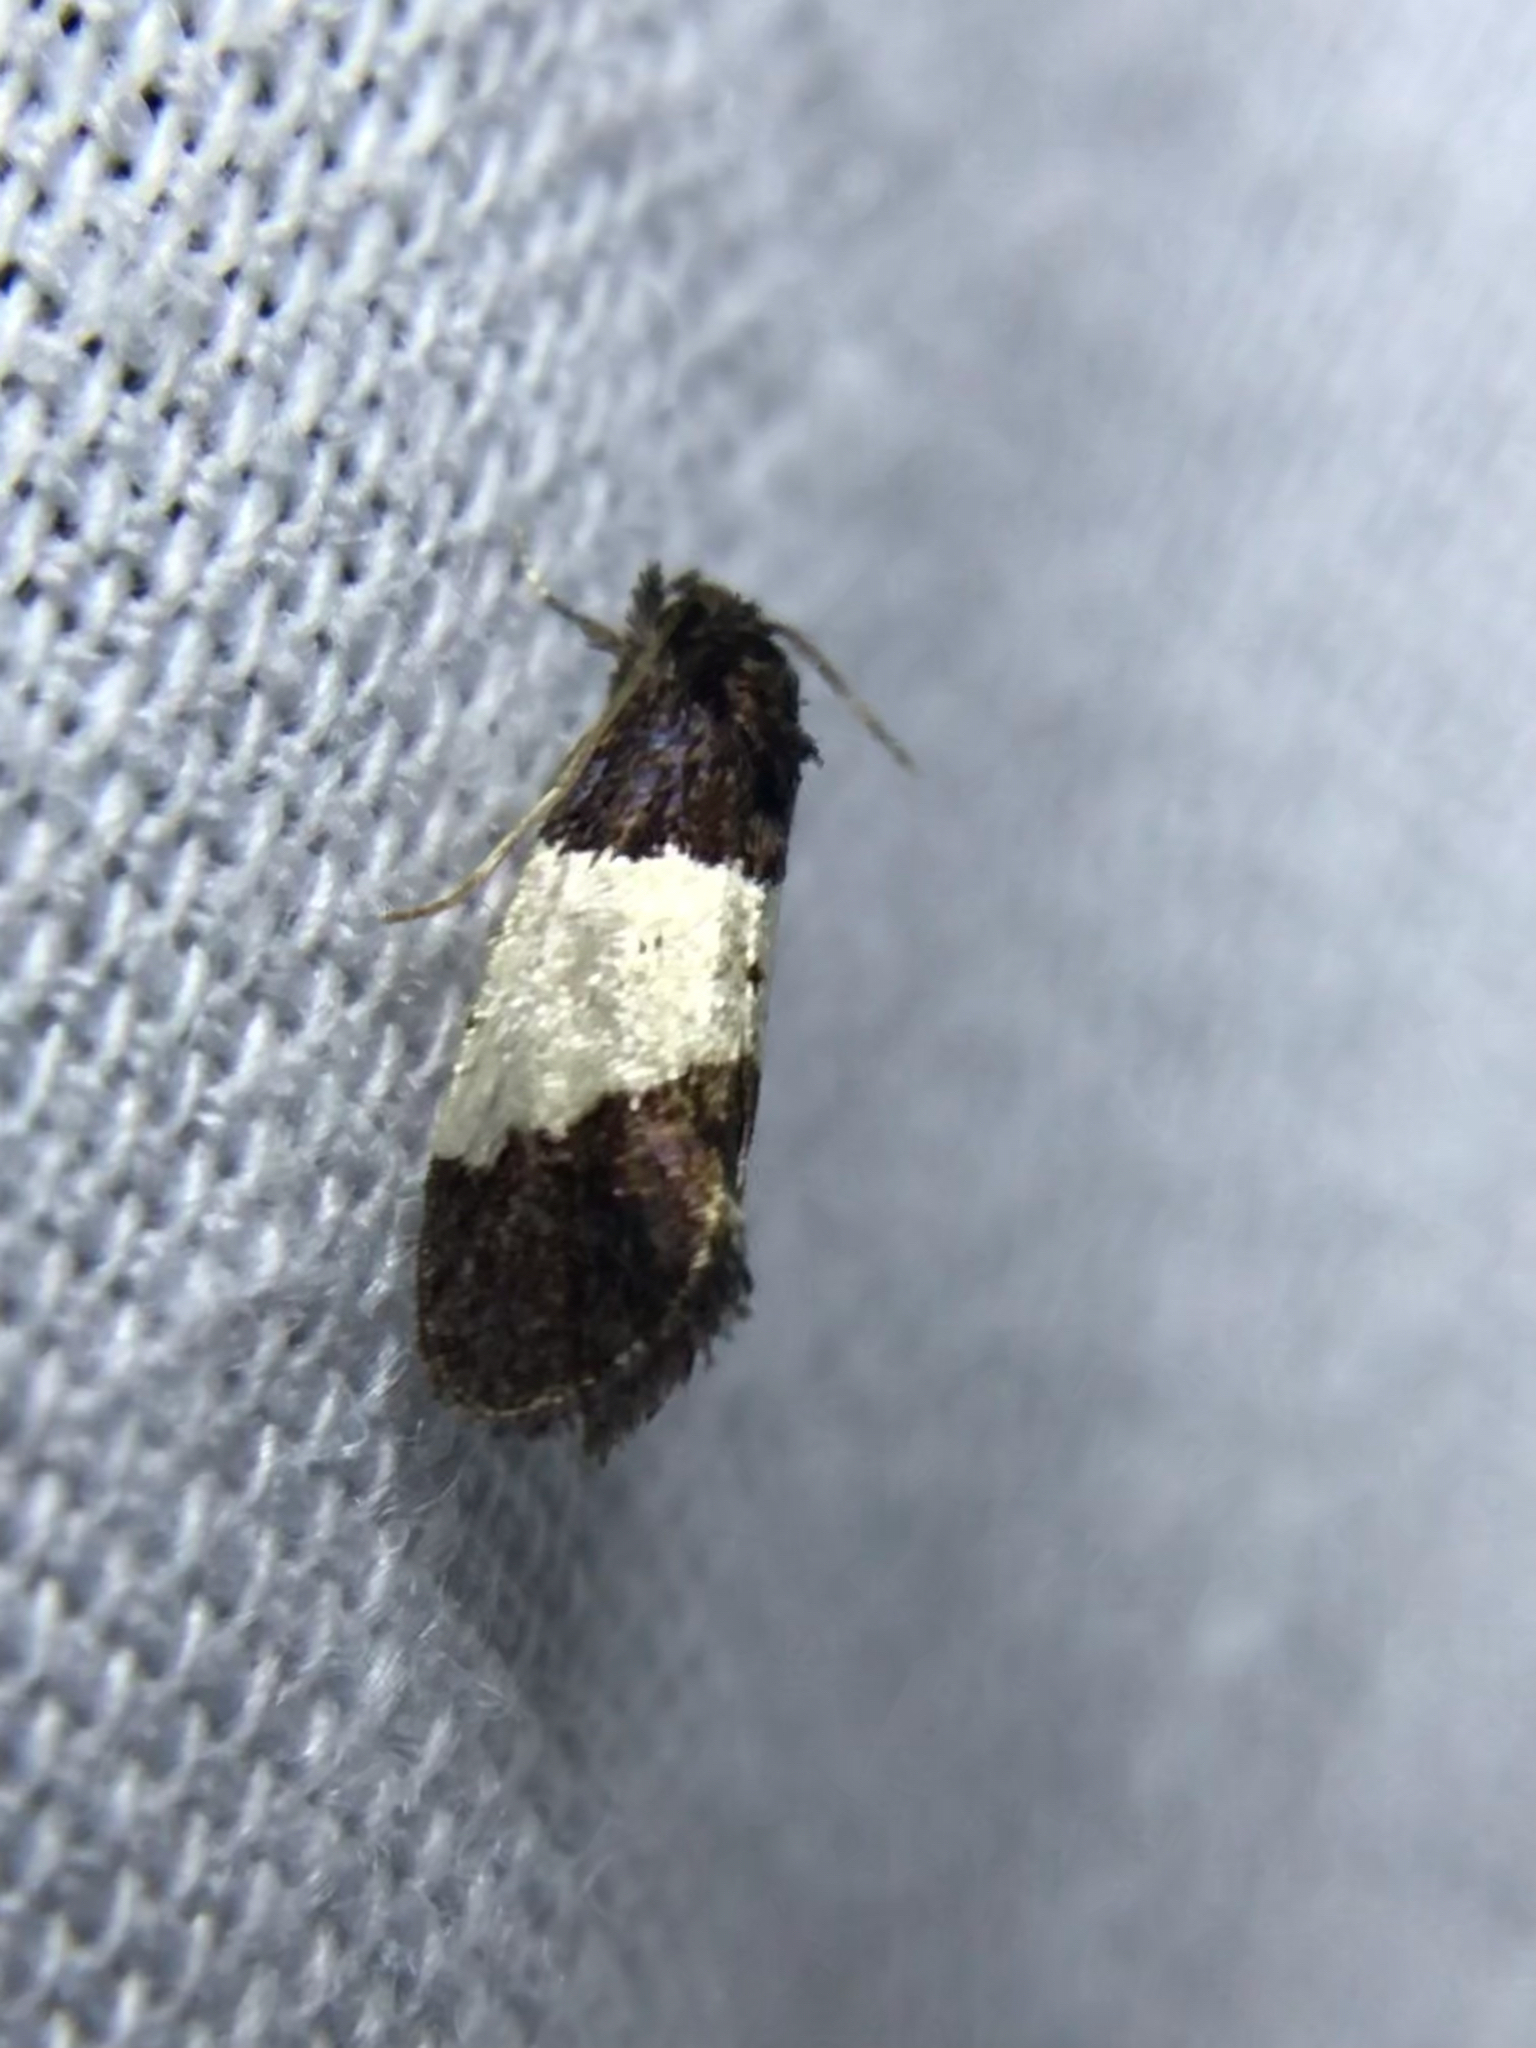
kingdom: Animalia
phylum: Arthropoda
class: Insecta
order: Lepidoptera
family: Psychidae
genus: Kearfottia
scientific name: Kearfottia albifasciella
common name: White-patched kearfottia
